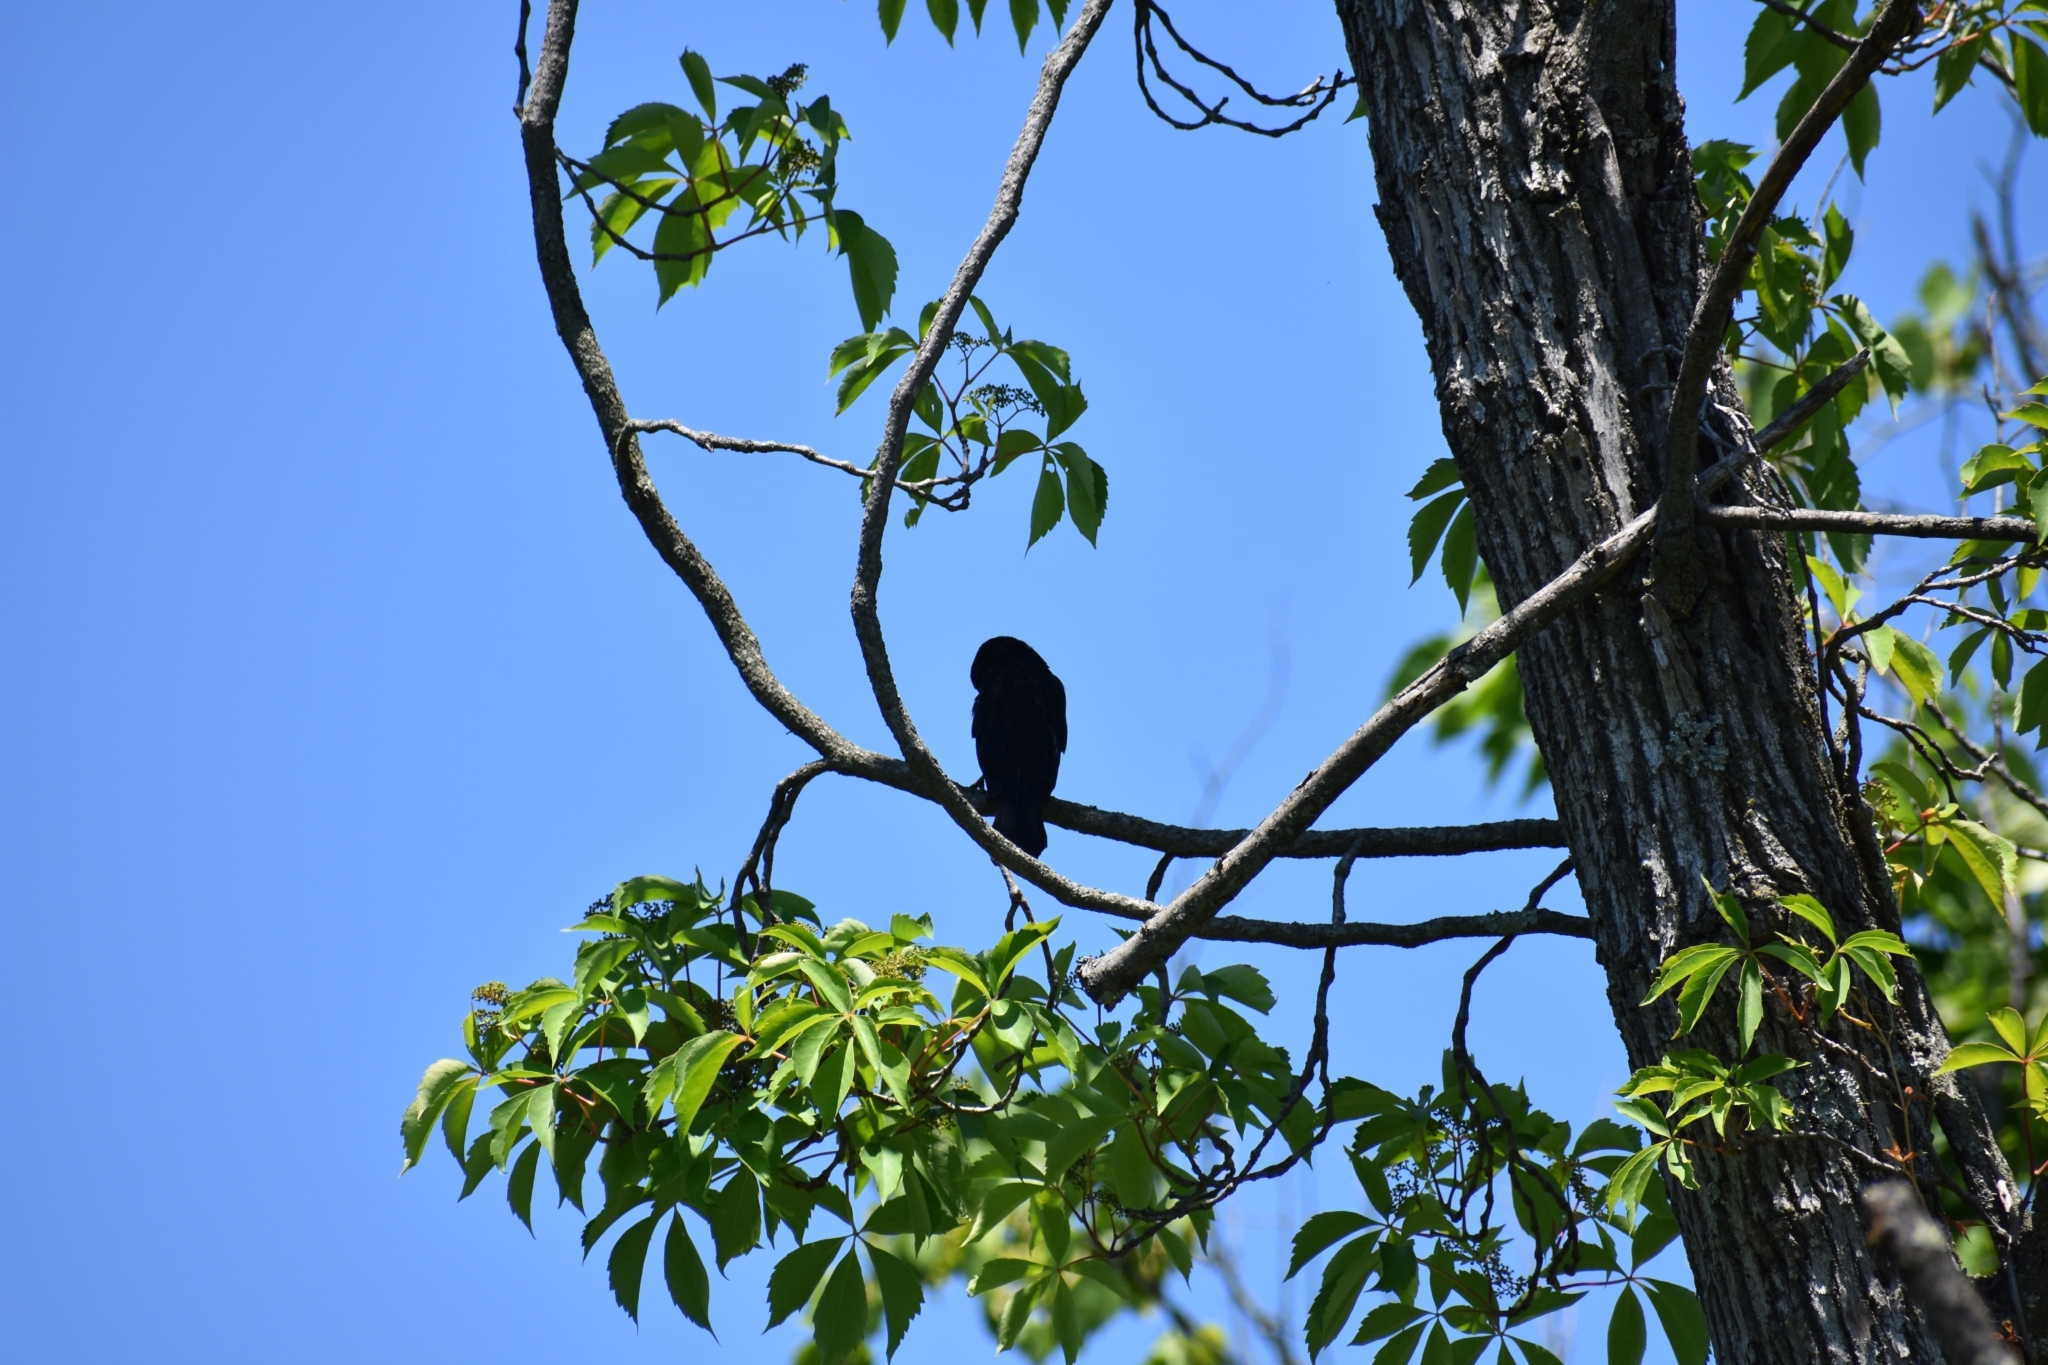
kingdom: Animalia
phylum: Chordata
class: Aves
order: Passeriformes
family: Icteridae
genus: Agelaius
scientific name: Agelaius phoeniceus
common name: Red-winged blackbird
